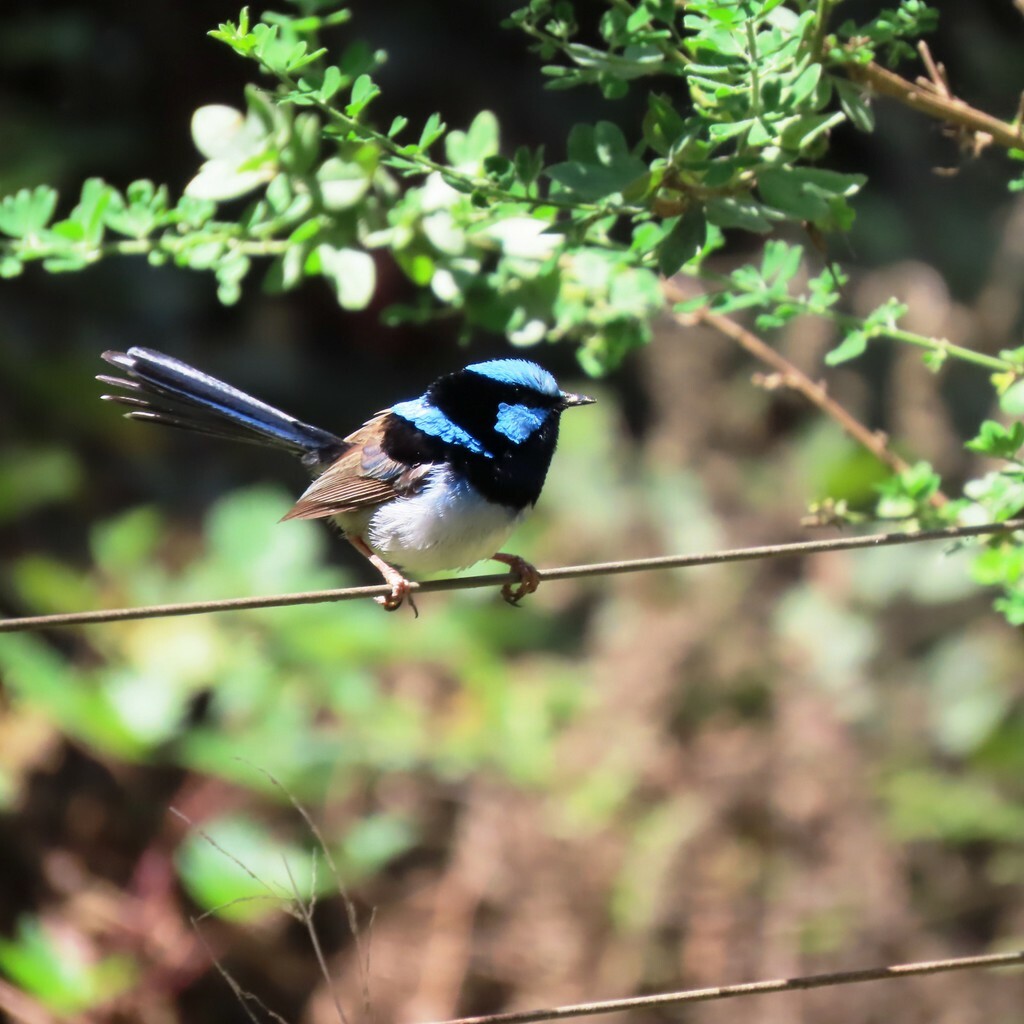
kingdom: Animalia
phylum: Chordata
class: Aves
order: Passeriformes
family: Maluridae
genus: Malurus
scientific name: Malurus cyaneus
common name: Superb fairywren
